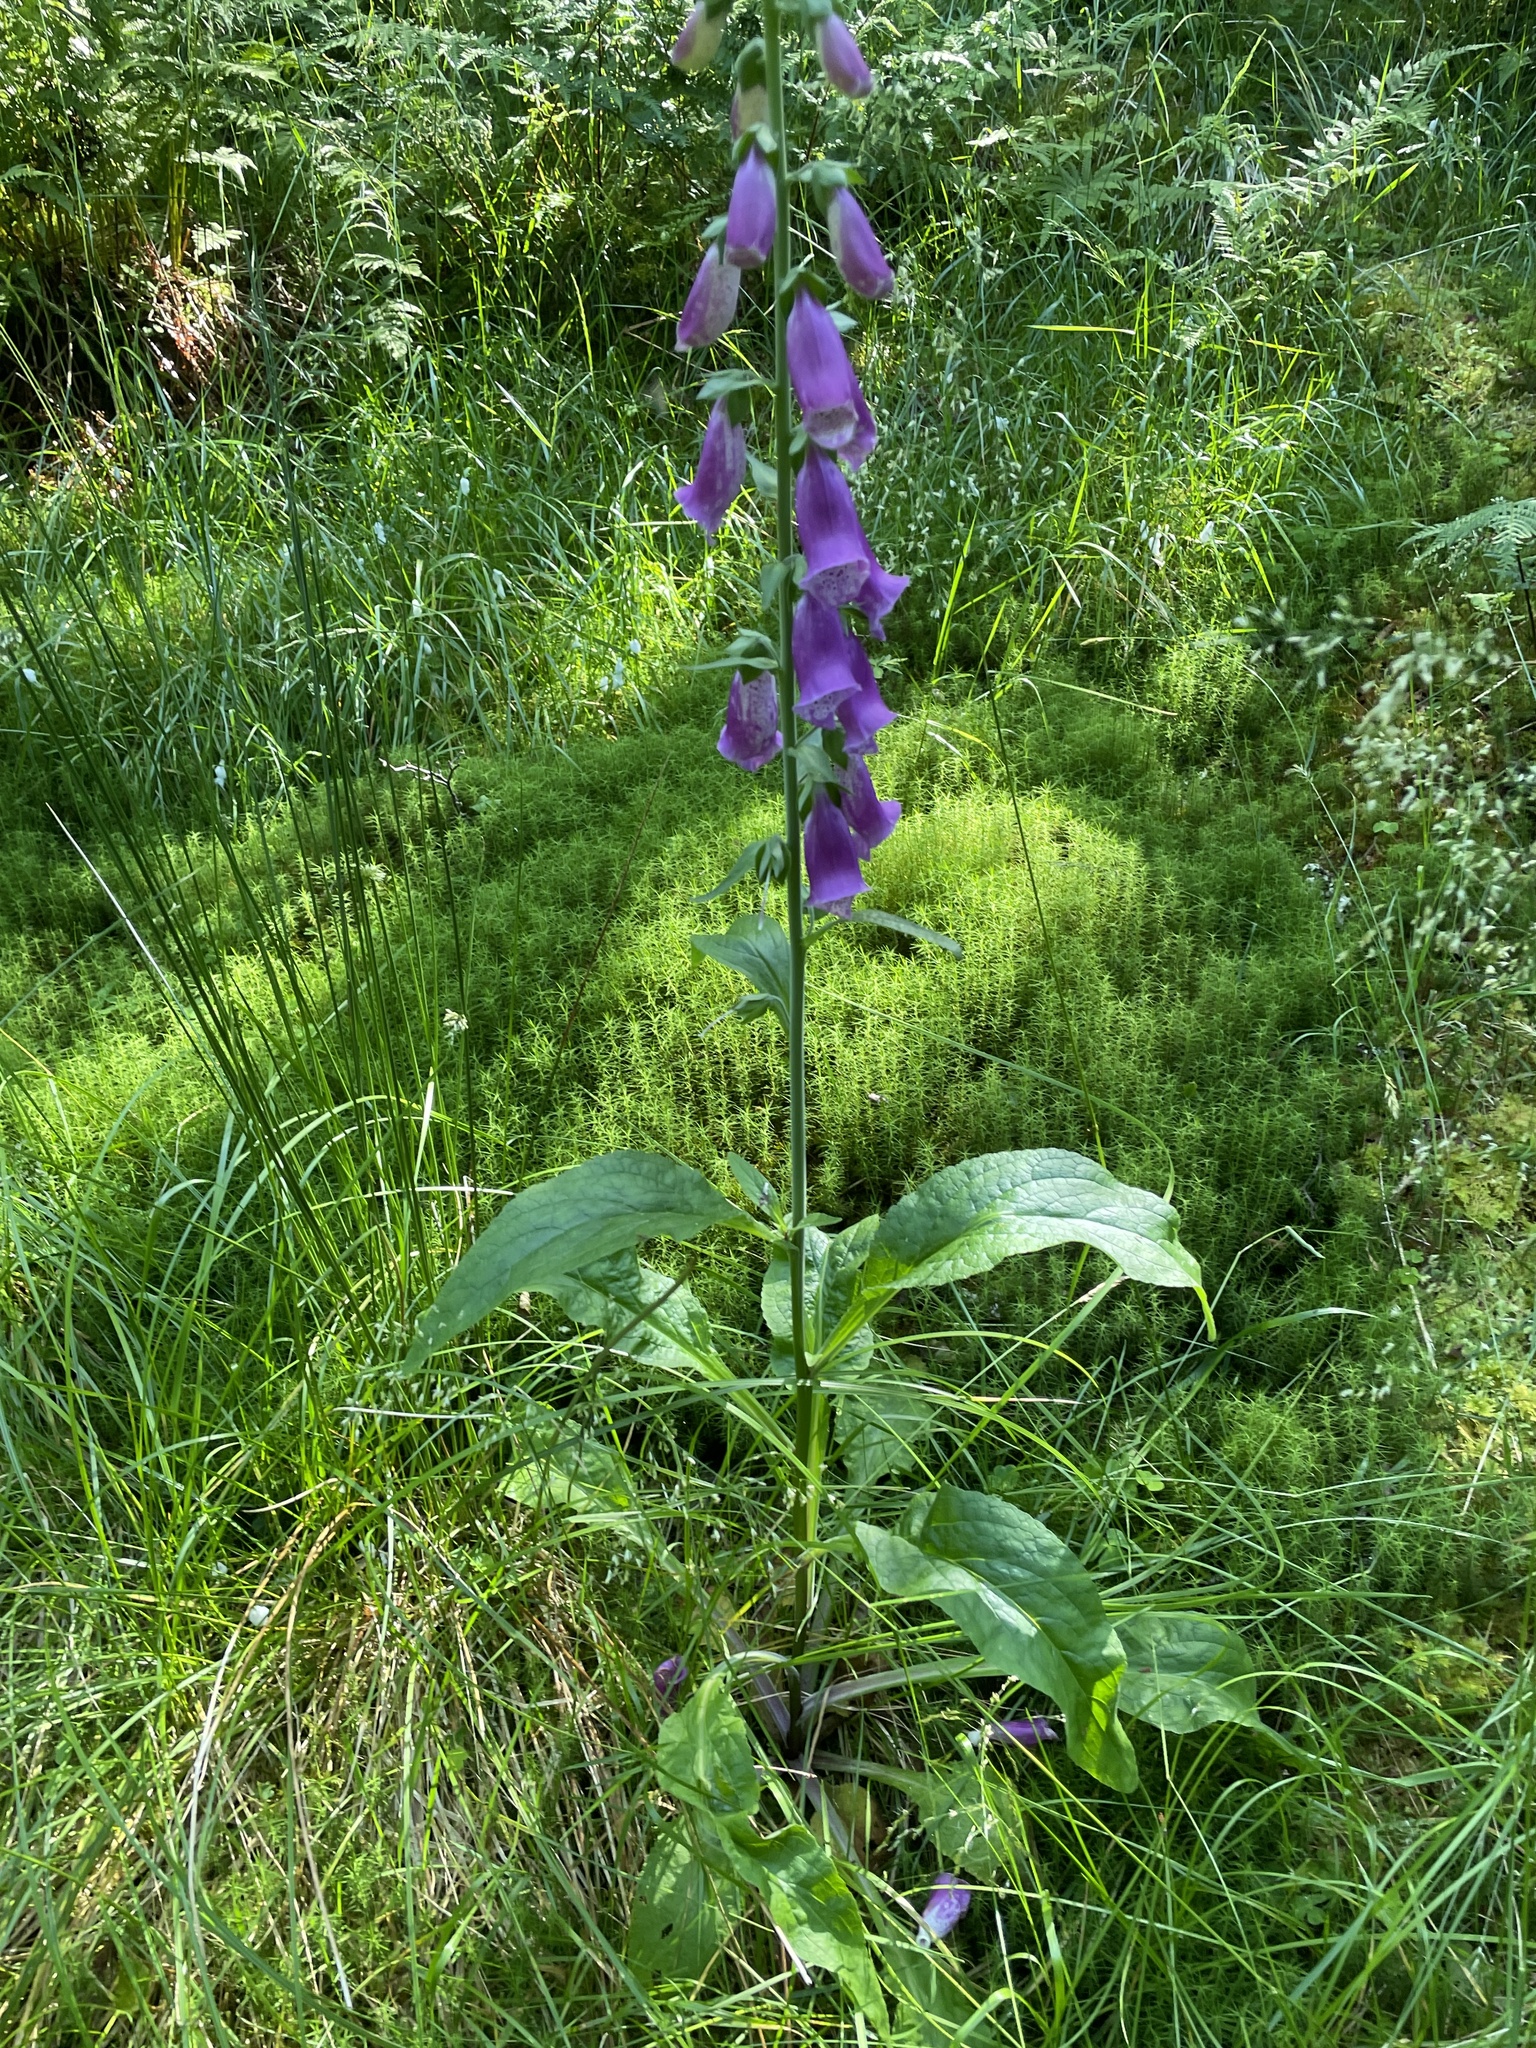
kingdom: Plantae
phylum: Tracheophyta
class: Magnoliopsida
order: Lamiales
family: Plantaginaceae
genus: Digitalis
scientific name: Digitalis purpurea
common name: Foxglove
